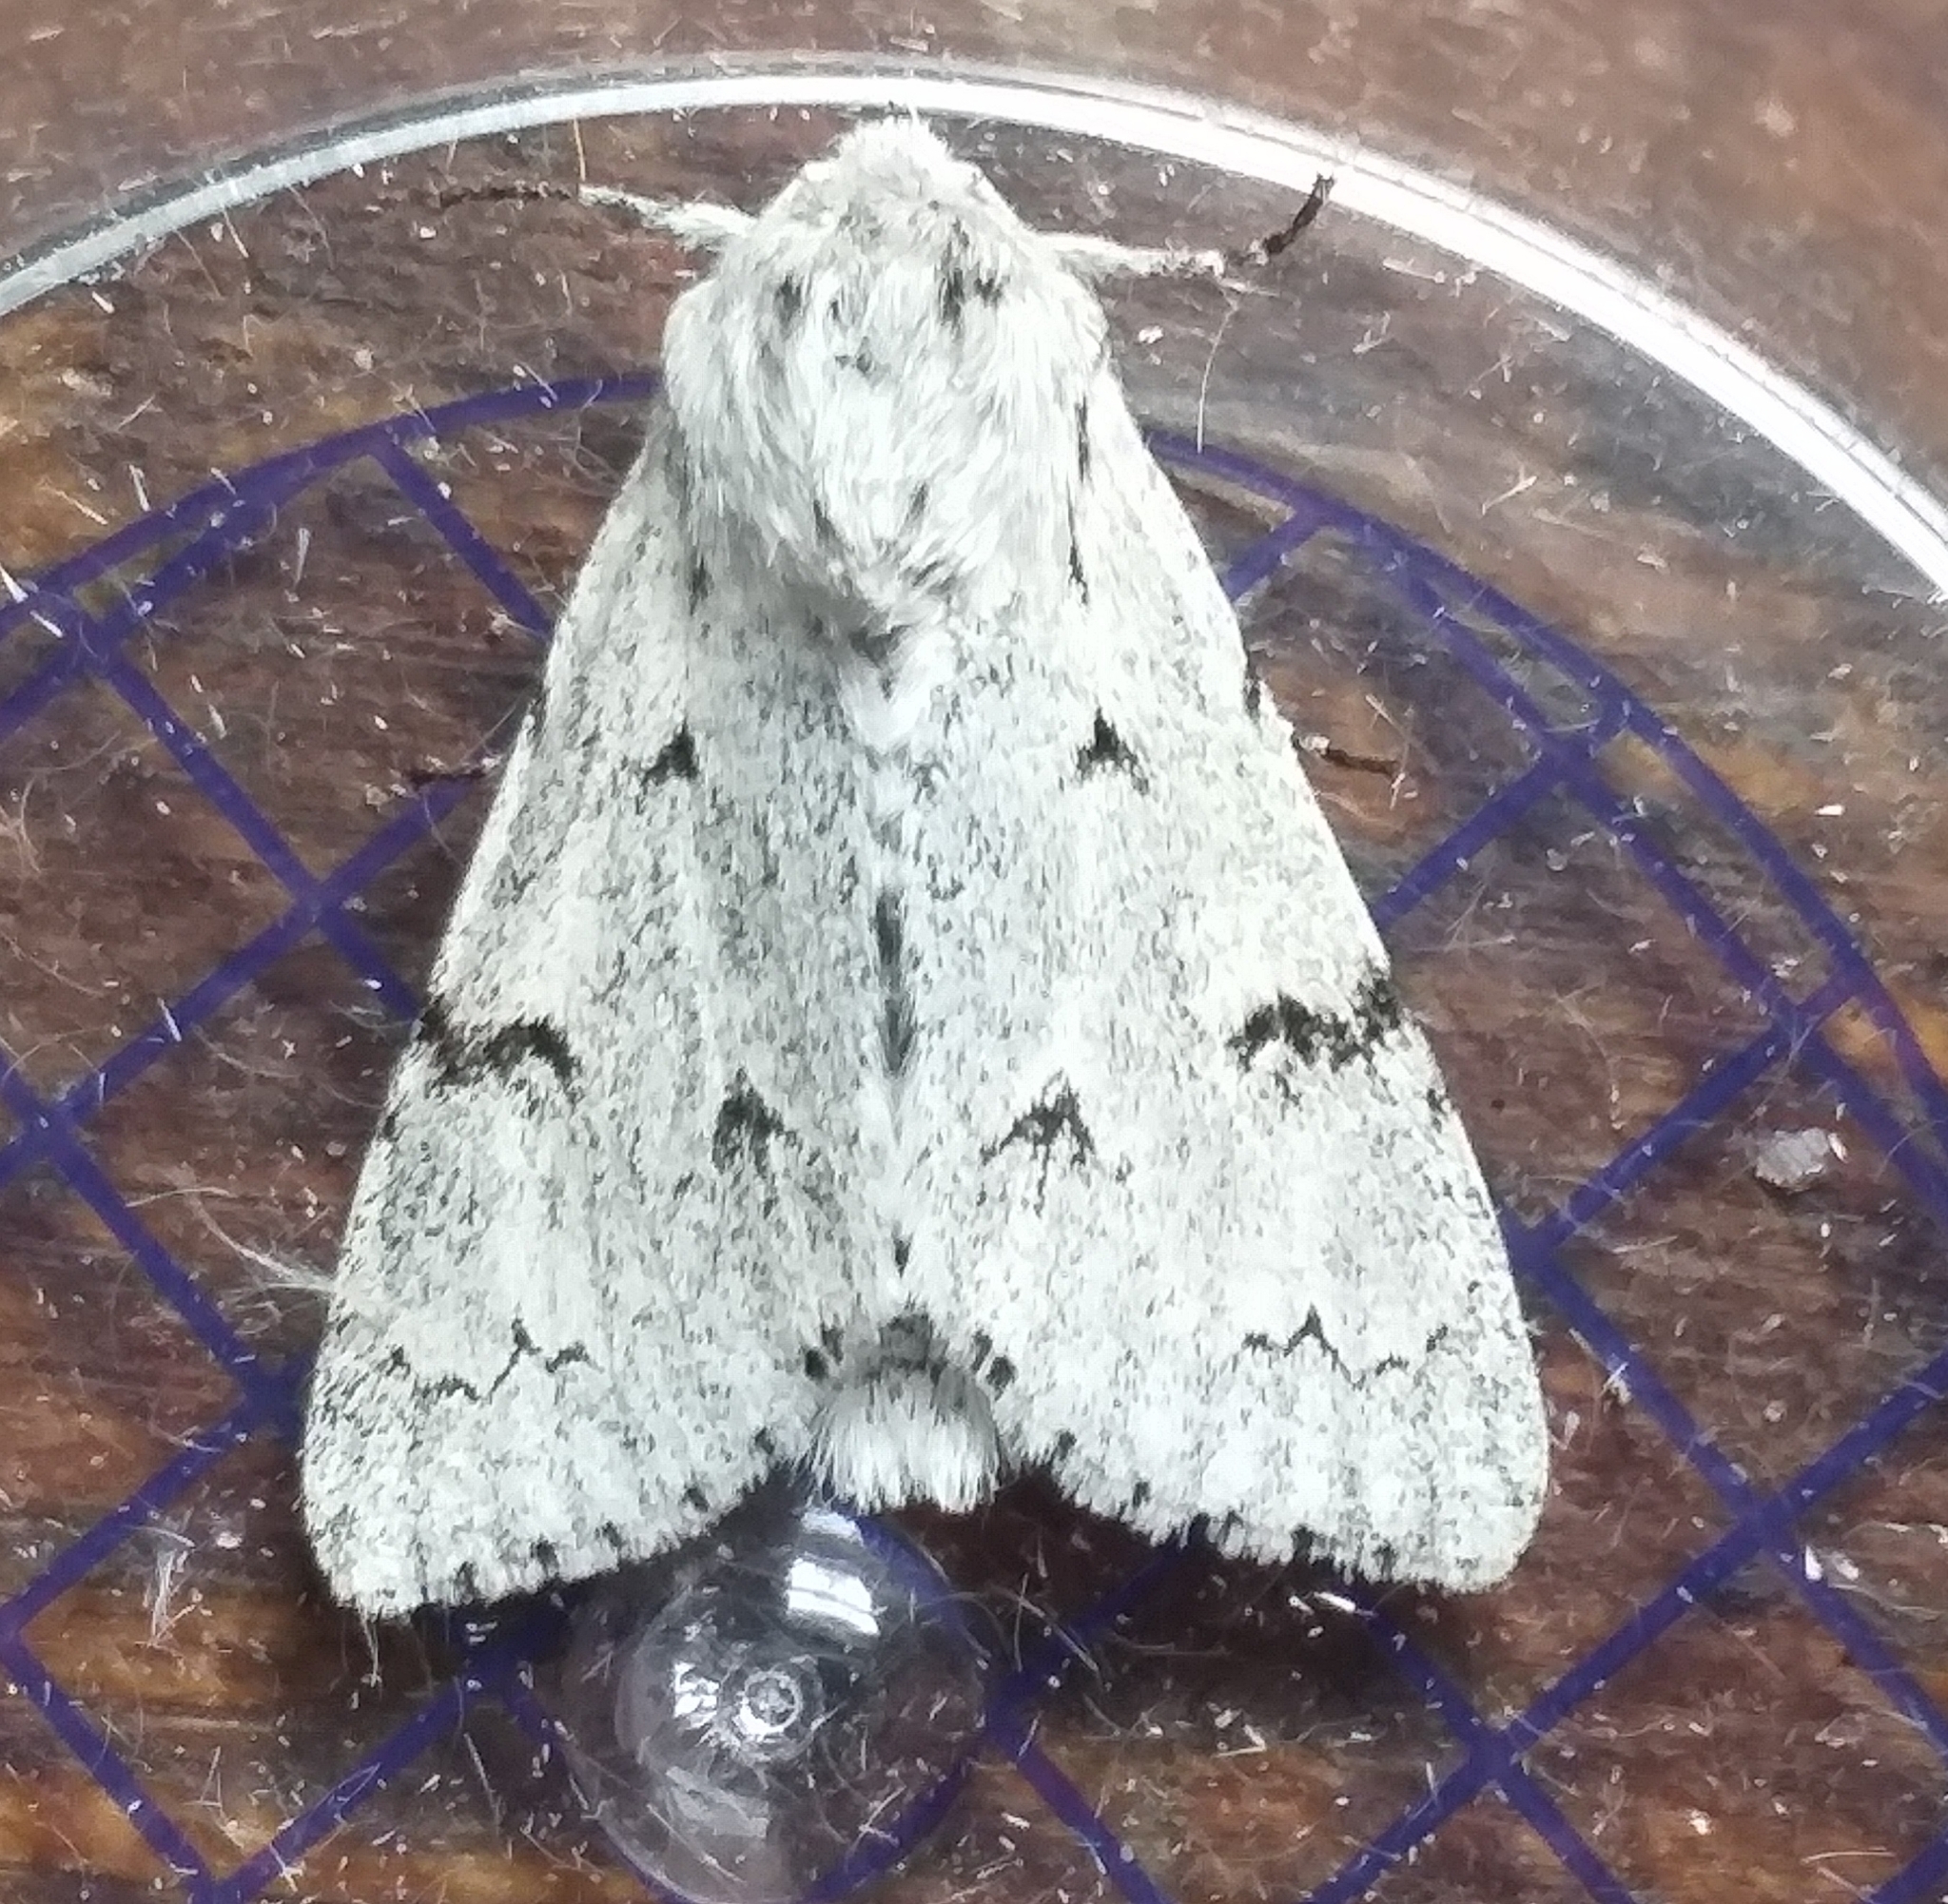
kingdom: Animalia
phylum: Arthropoda
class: Insecta
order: Lepidoptera
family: Noctuidae
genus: Acronicta
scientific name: Acronicta leporina
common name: Miller
